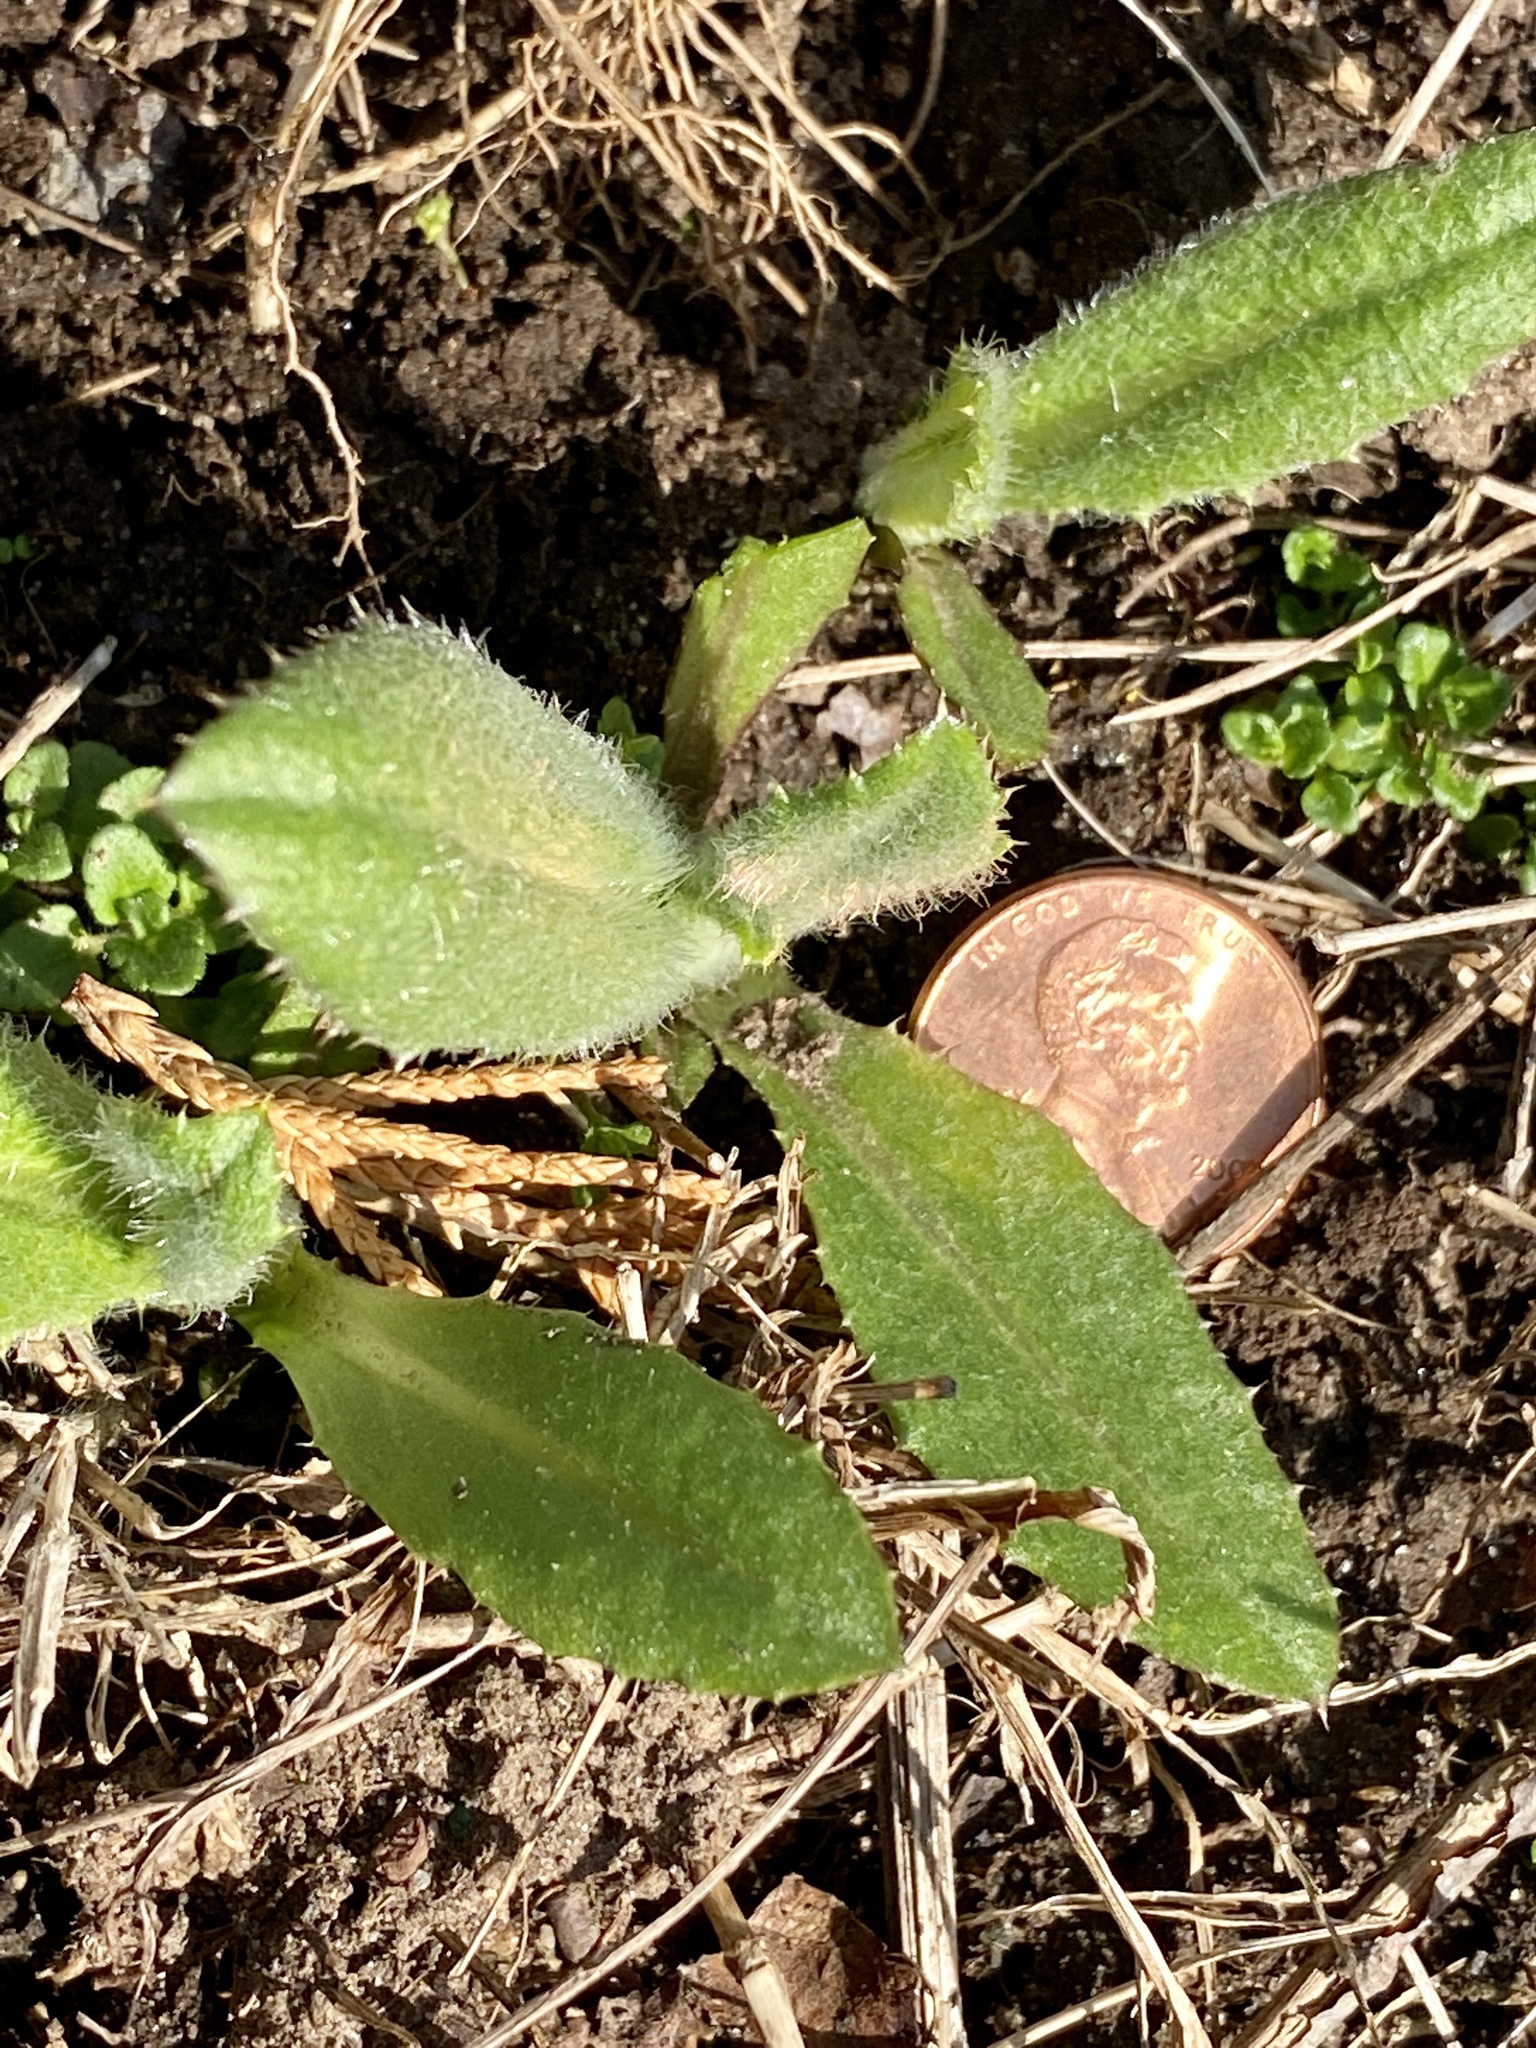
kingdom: Plantae
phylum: Tracheophyta
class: Magnoliopsida
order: Asterales
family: Asteraceae
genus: Cirsium
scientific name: Cirsium arvense
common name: Creeping thistle
